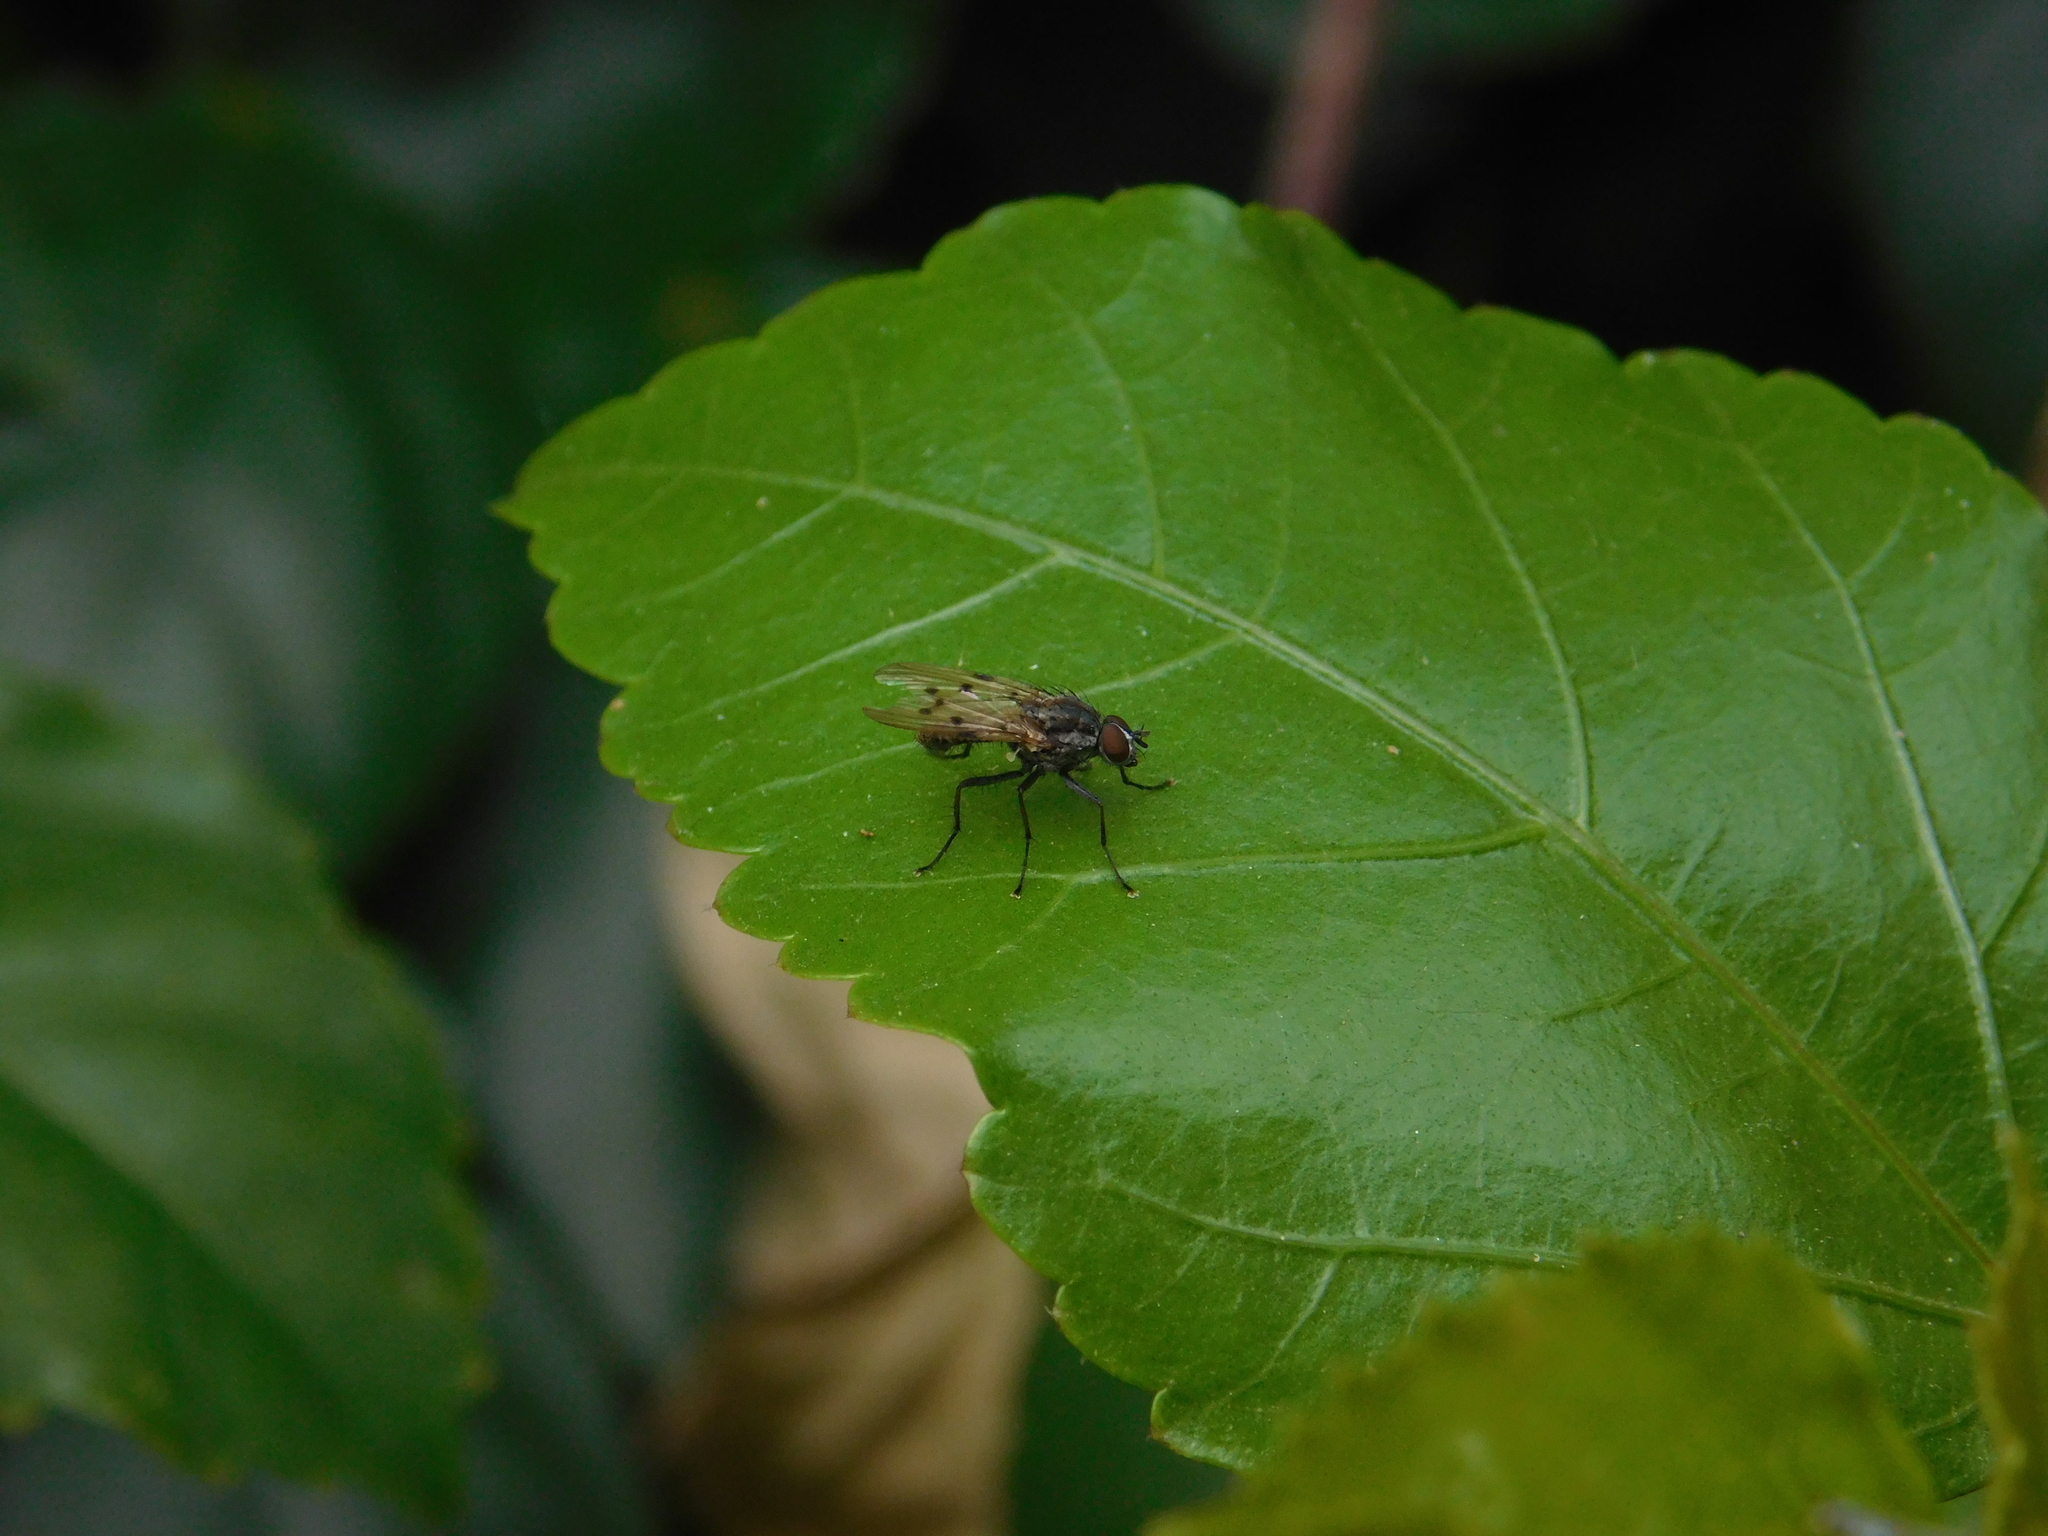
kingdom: Animalia
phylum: Arthropoda
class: Insecta
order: Diptera
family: Anthomyiidae
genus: Anthomyia
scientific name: Anthomyia punctipennis
